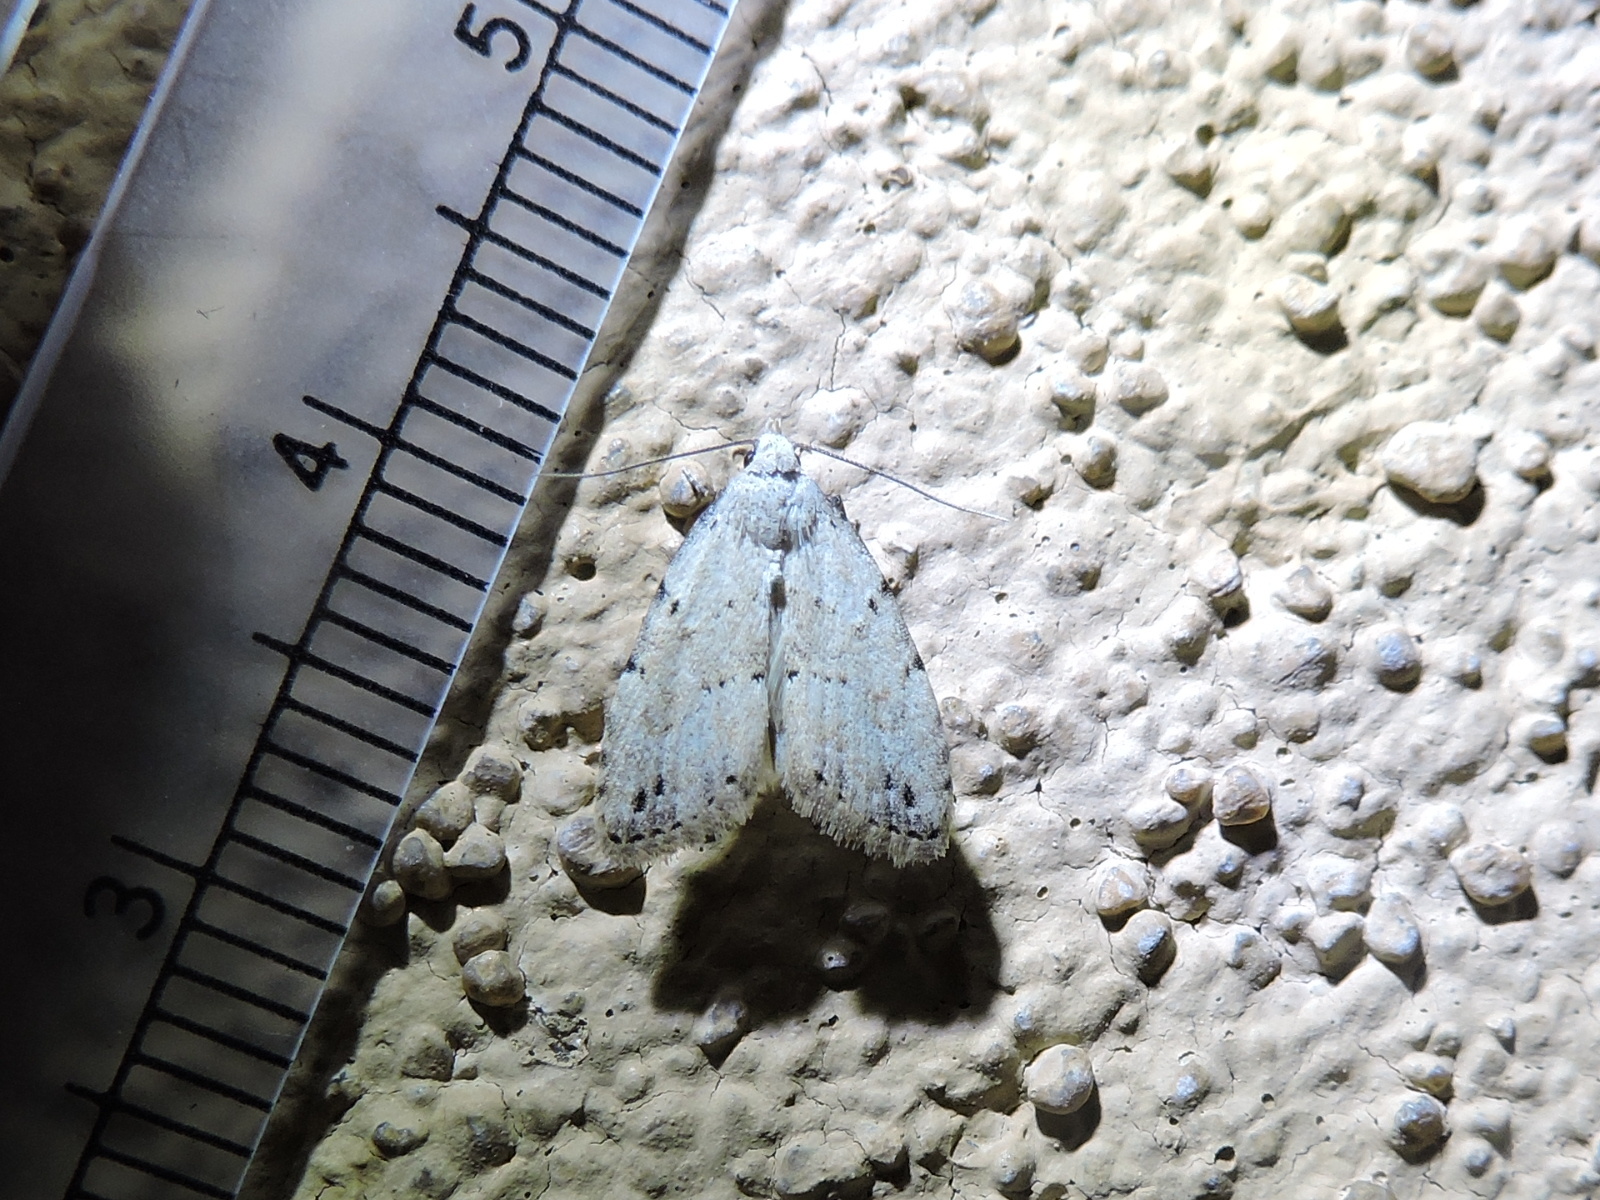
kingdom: Animalia
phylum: Arthropoda
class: Insecta
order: Lepidoptera
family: Noctuidae
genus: Dasyblemma
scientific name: Dasyblemma straminea
